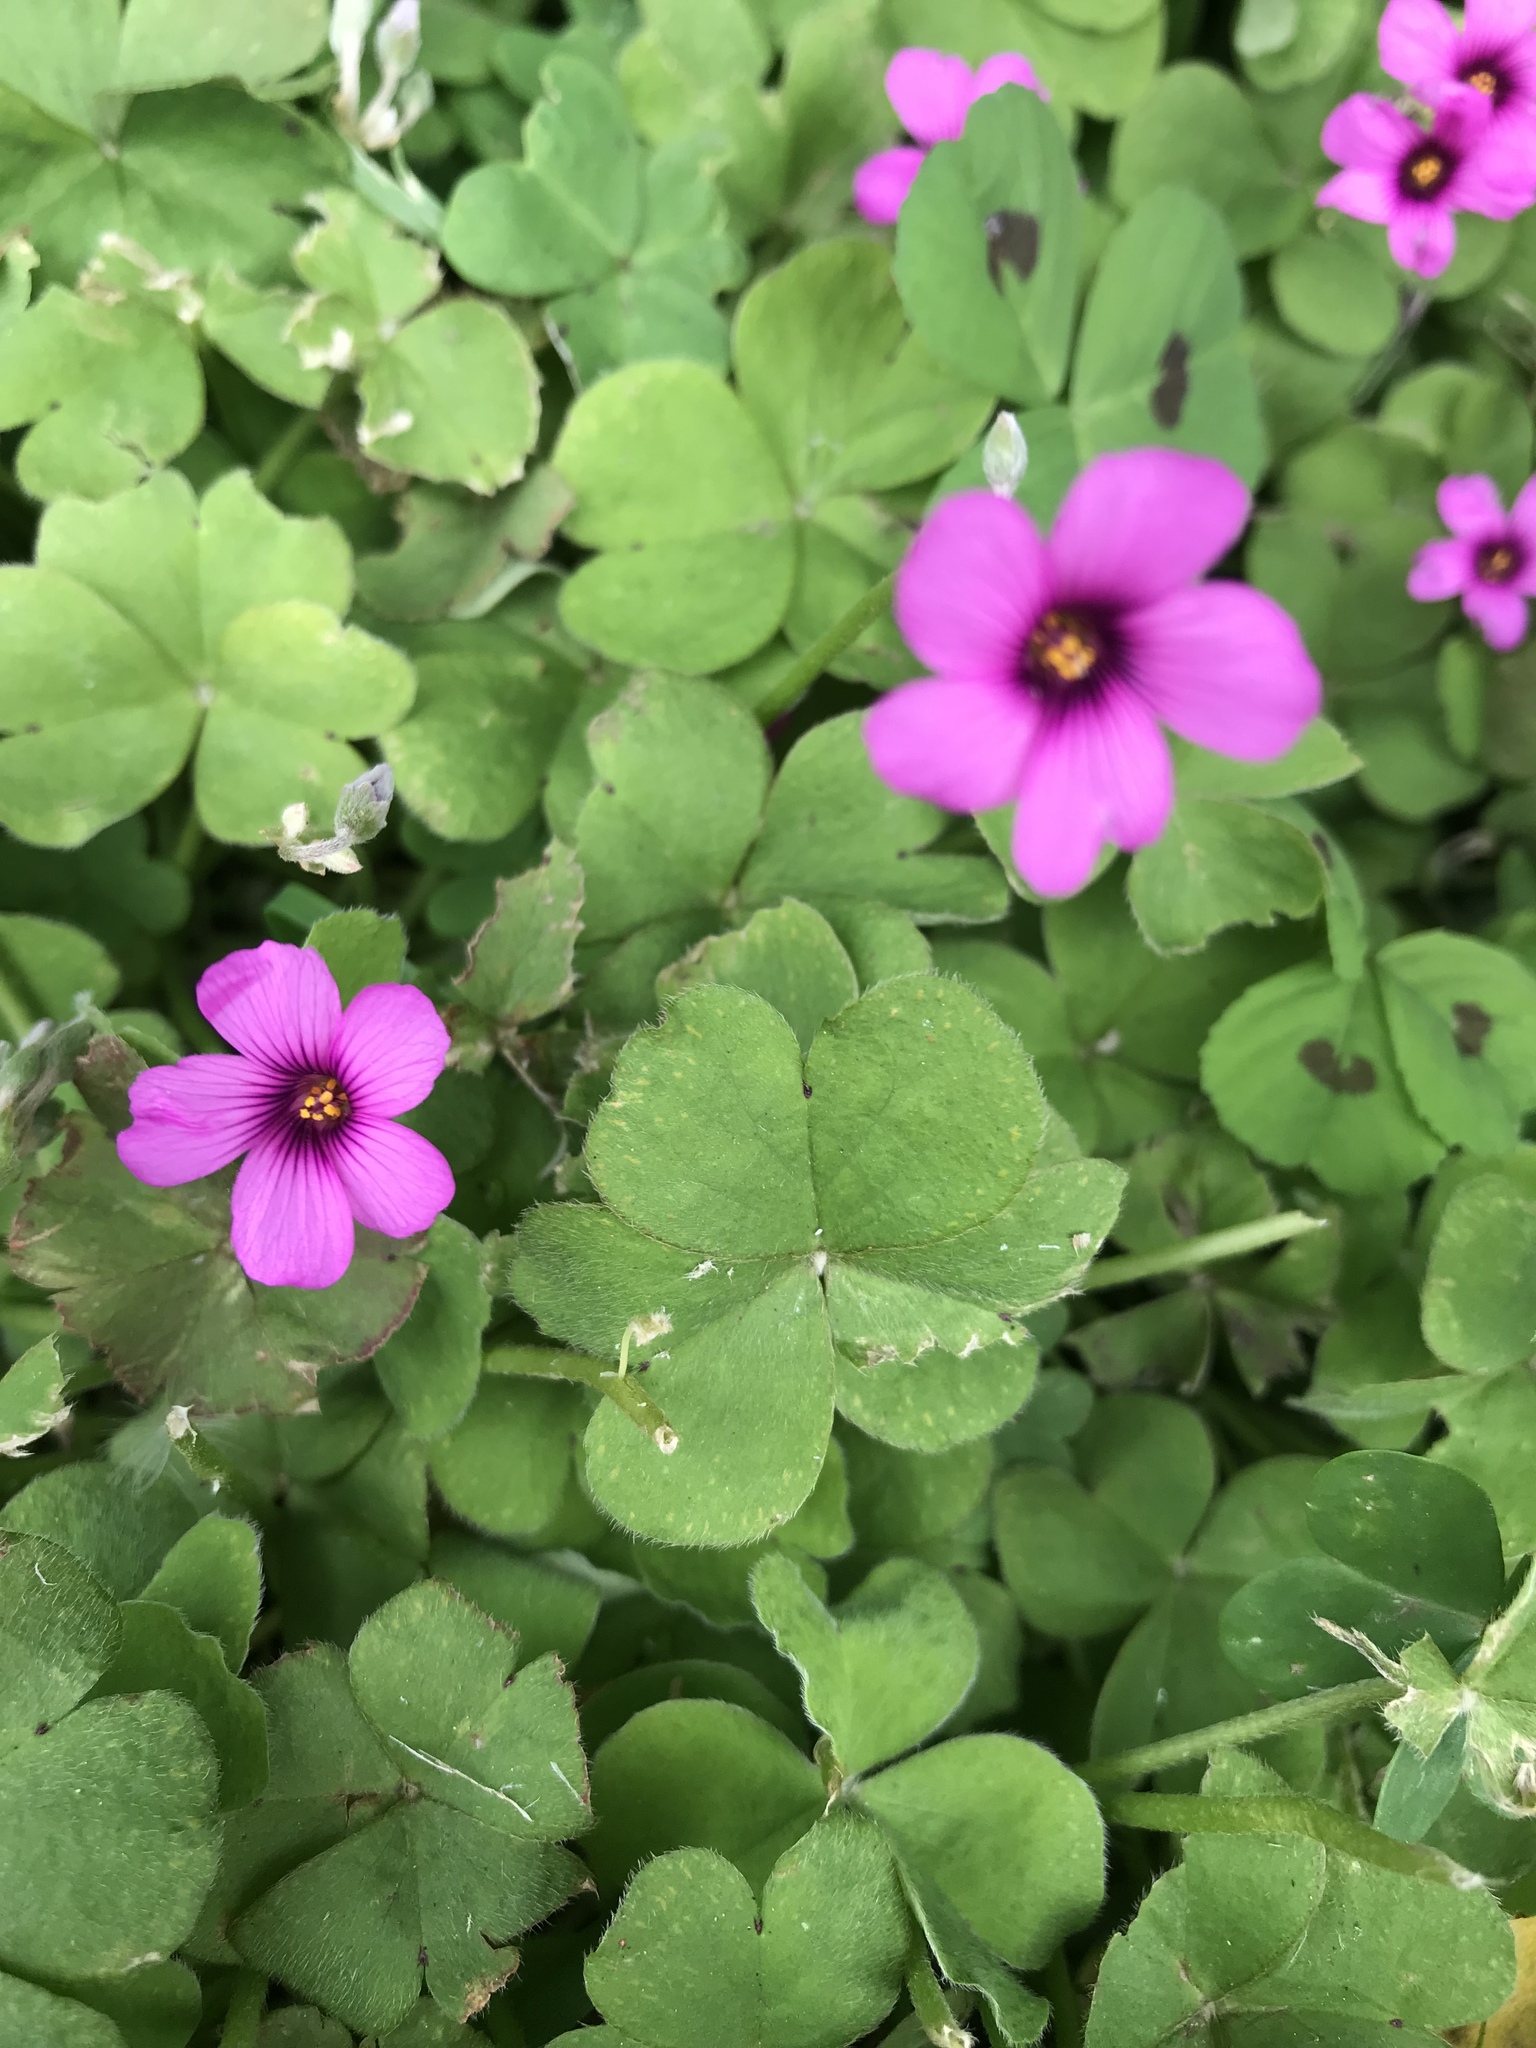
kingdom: Plantae
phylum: Tracheophyta
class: Magnoliopsida
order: Oxalidales
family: Oxalidaceae
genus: Oxalis
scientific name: Oxalis articulata
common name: Pink-sorrel
